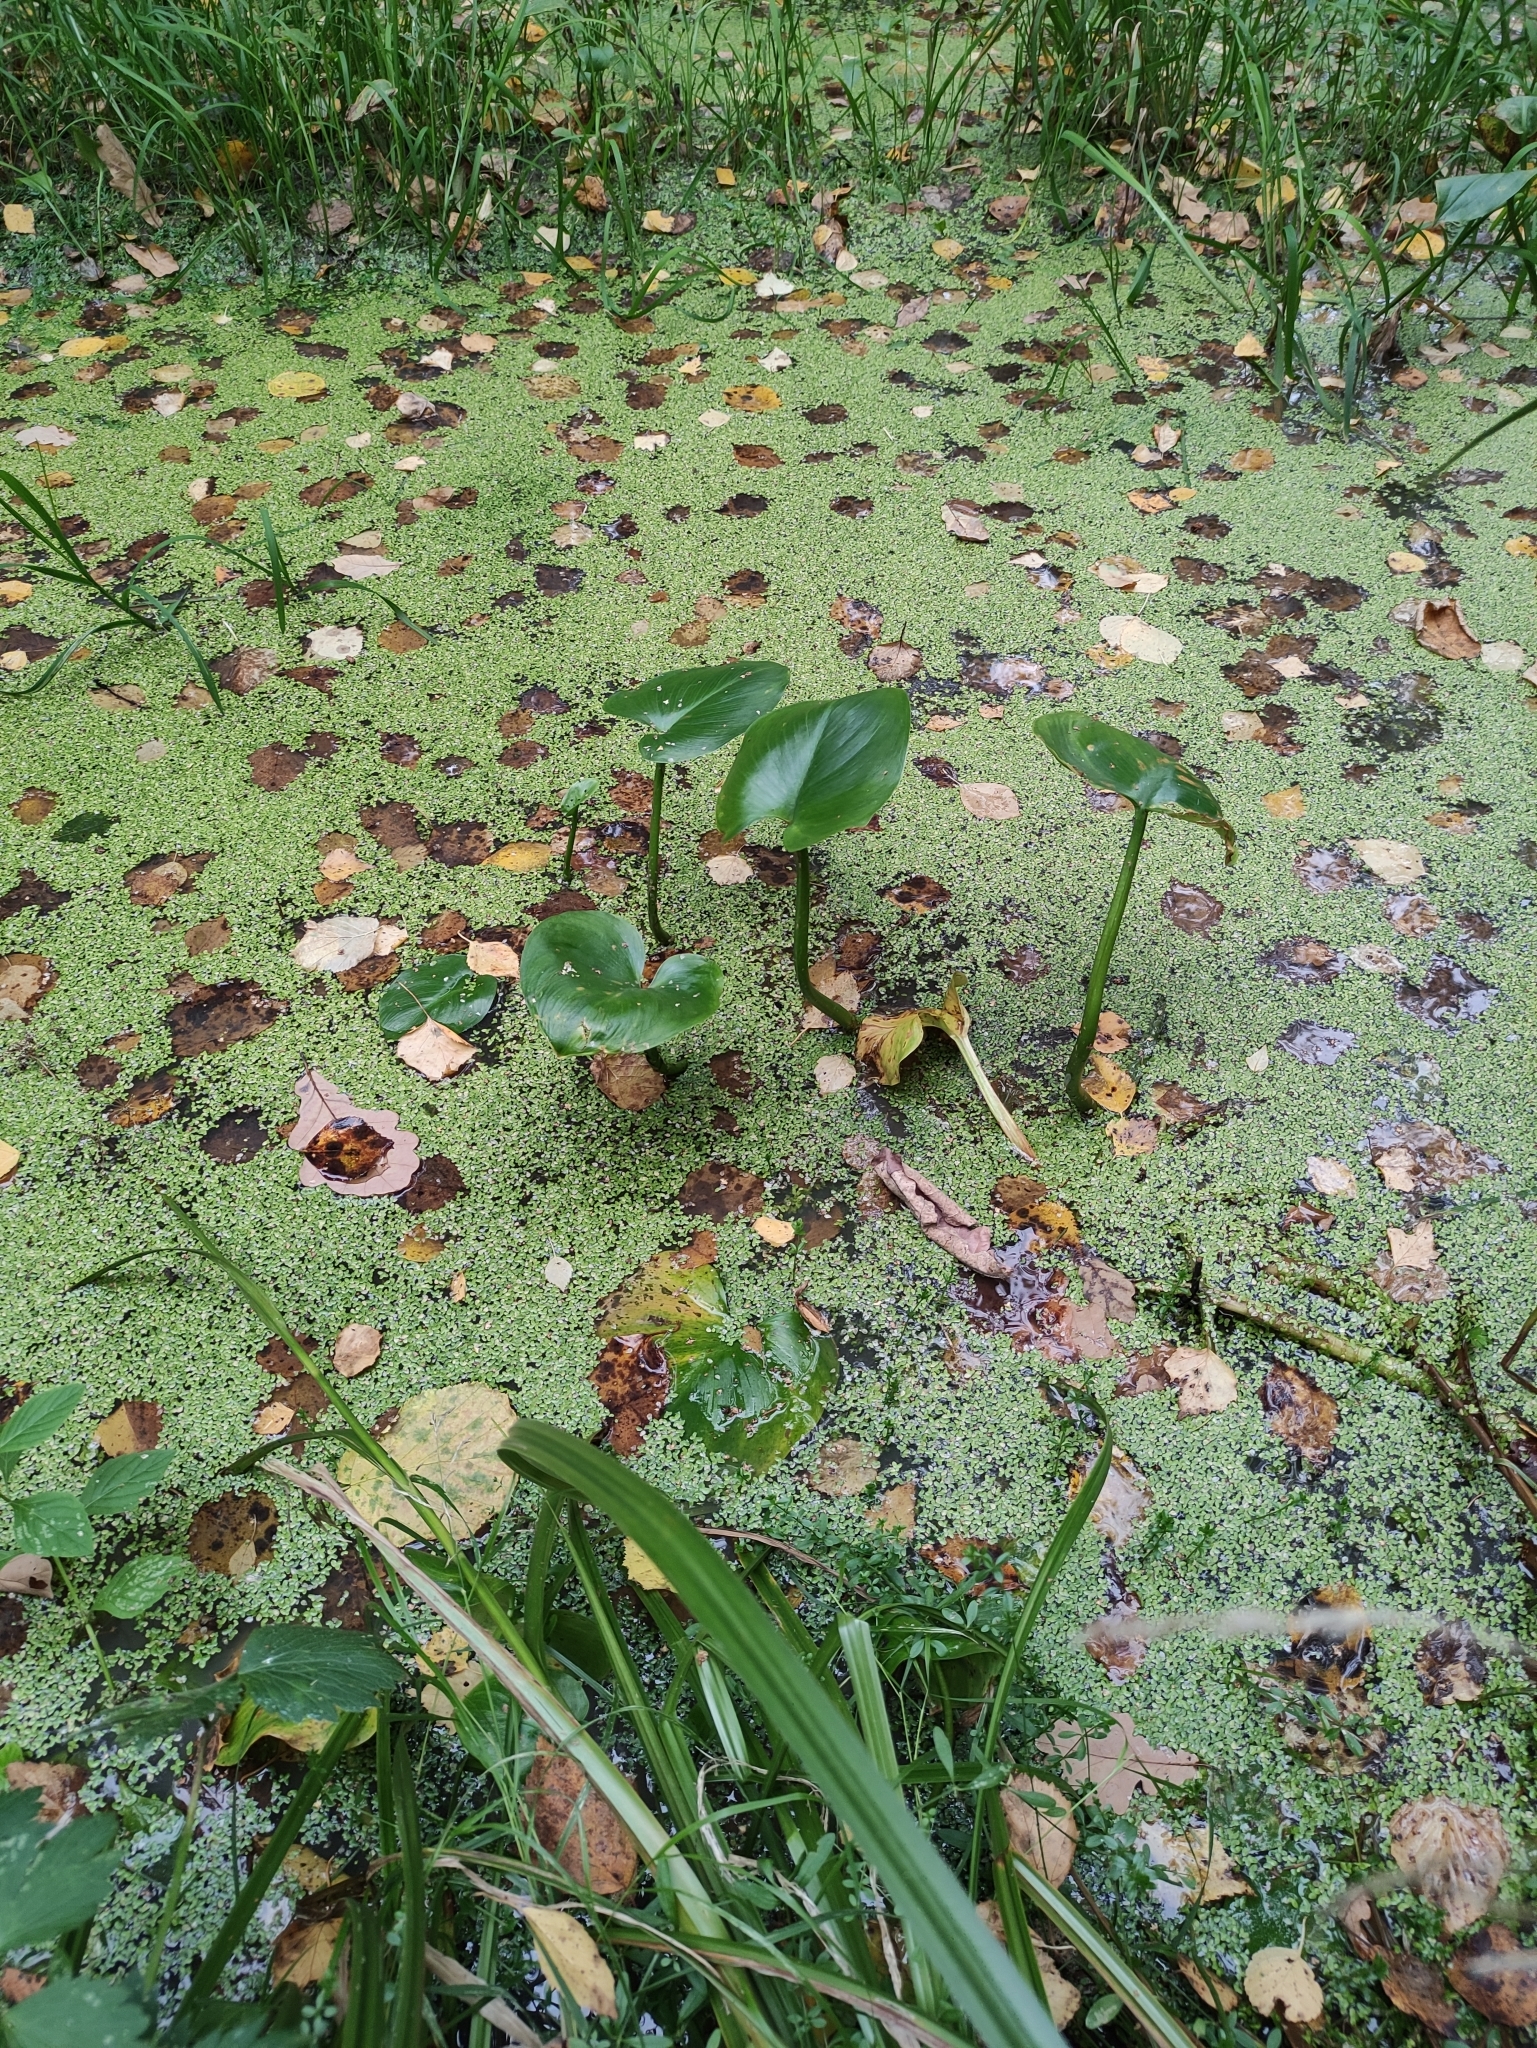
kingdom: Plantae
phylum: Tracheophyta
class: Liliopsida
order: Alismatales
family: Araceae
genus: Calla
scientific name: Calla palustris
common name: Bog arum
